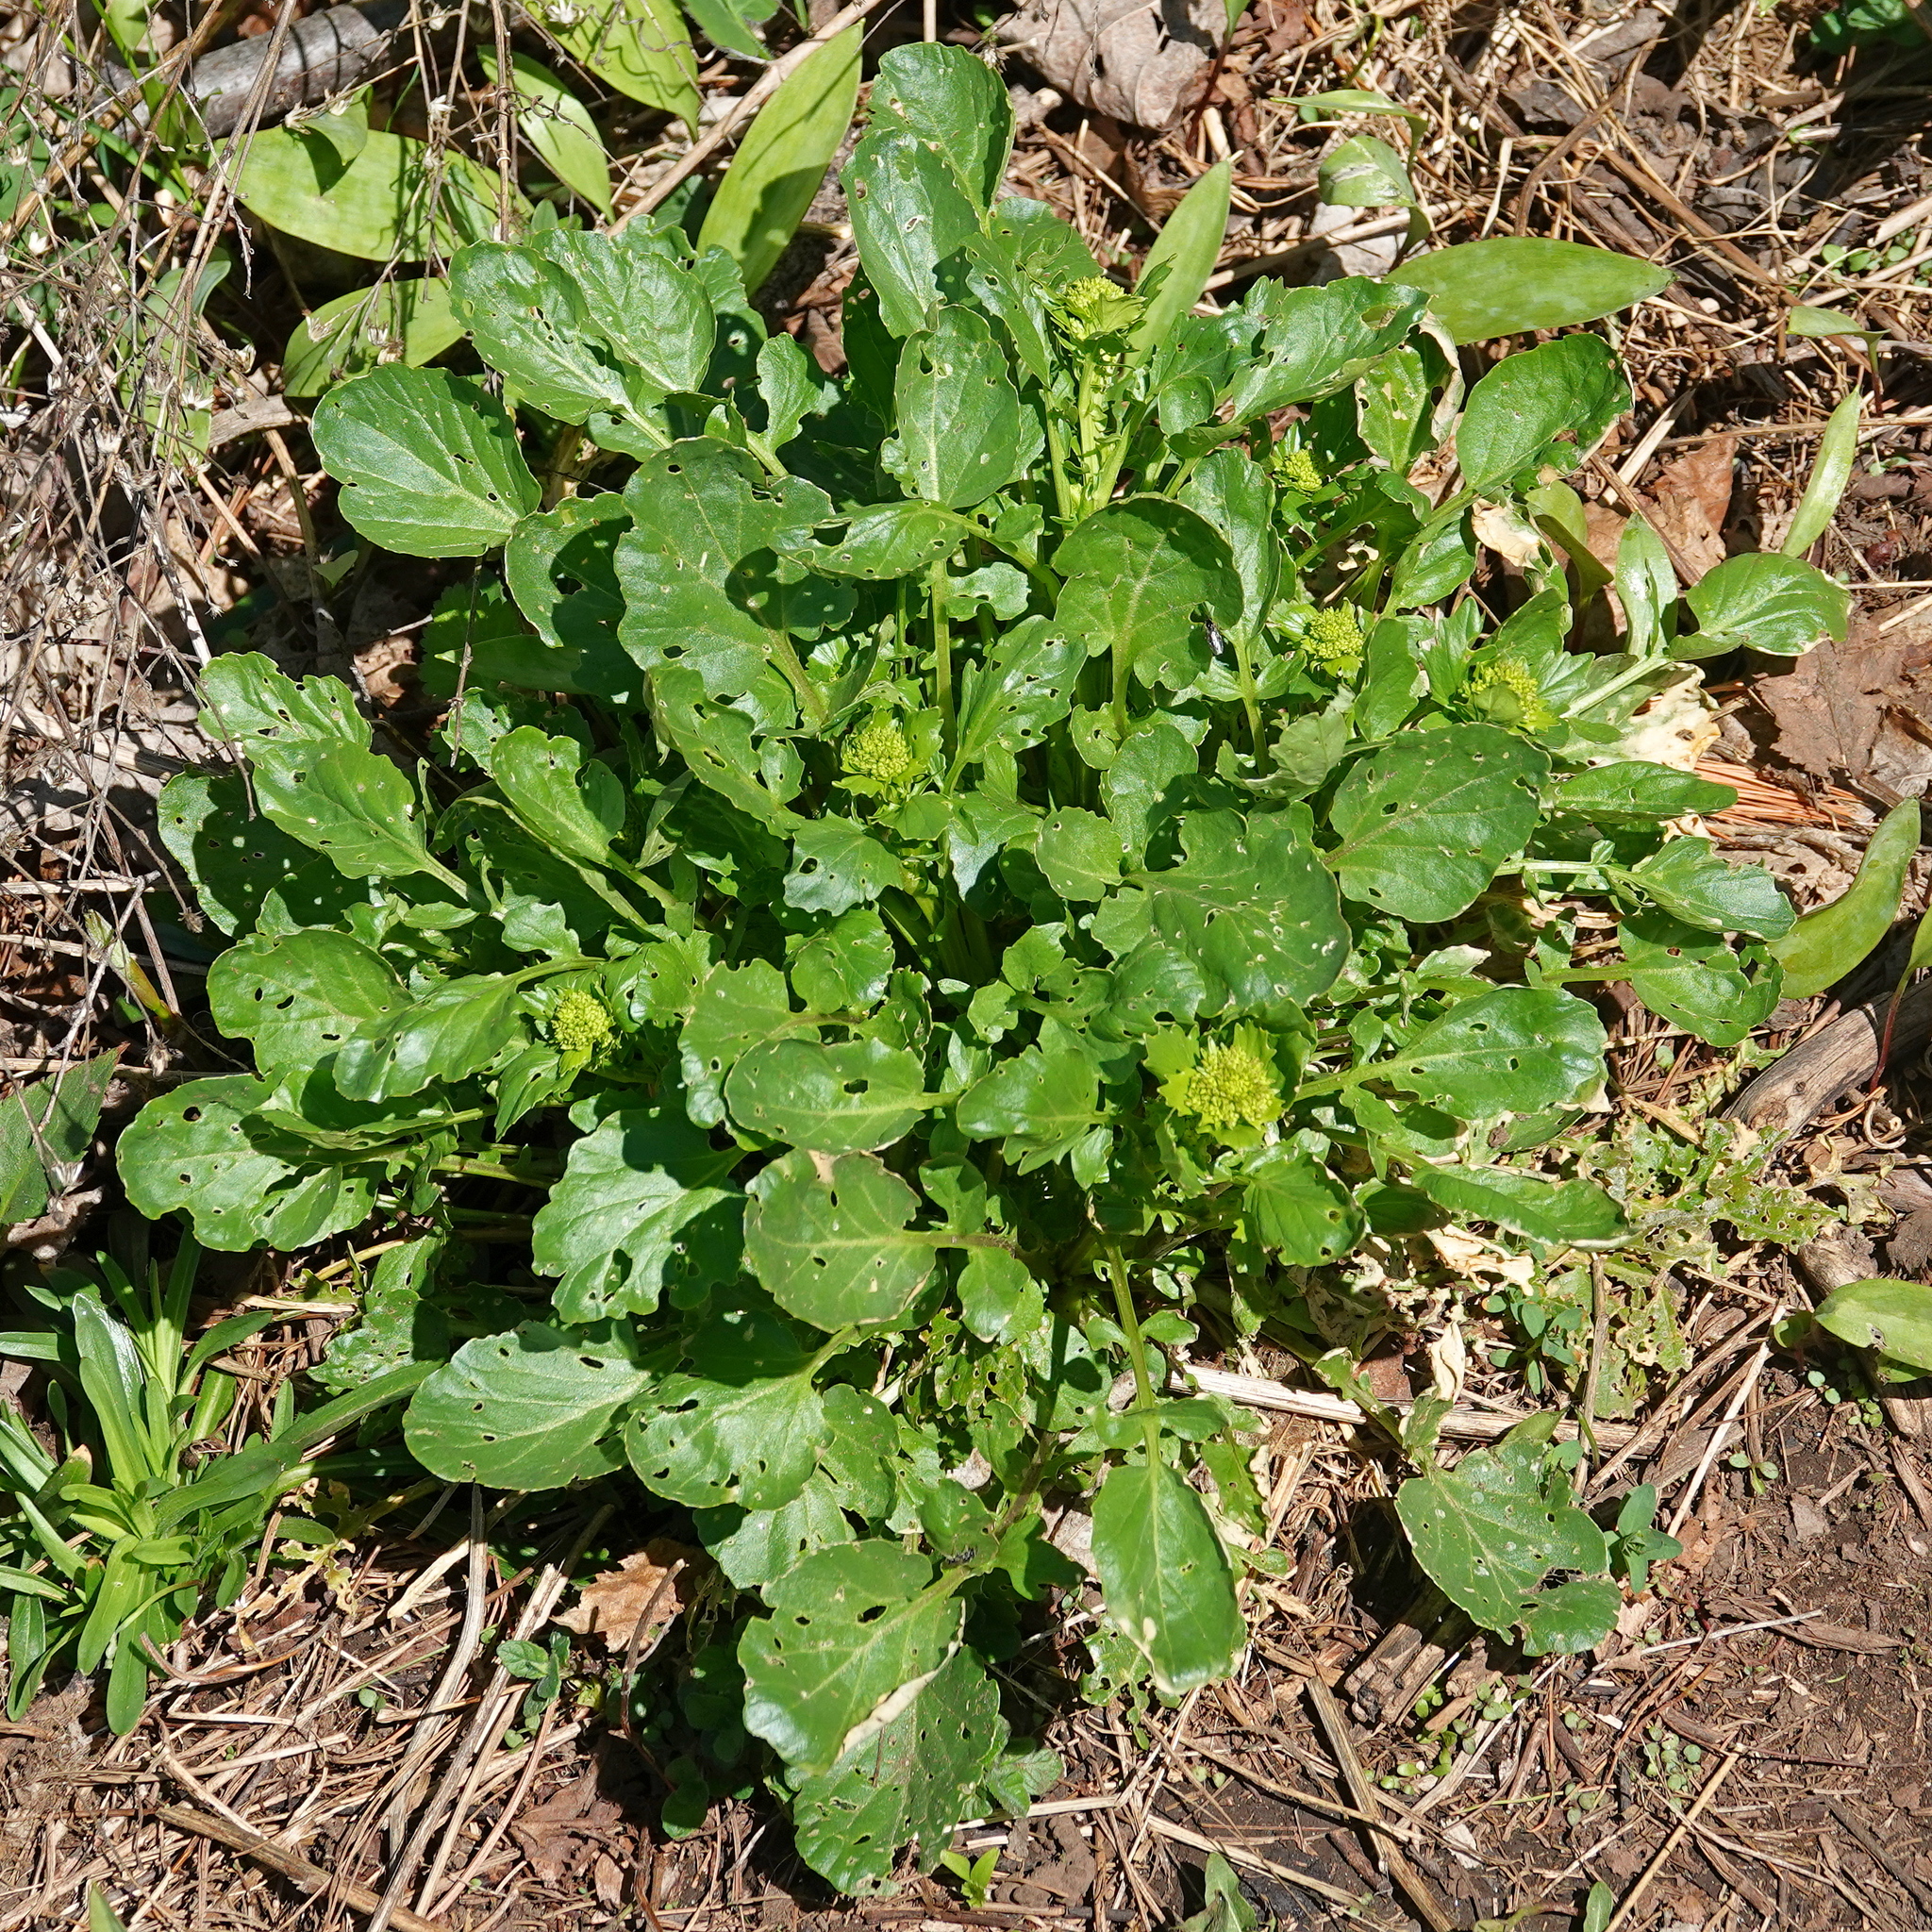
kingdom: Plantae
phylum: Tracheophyta
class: Magnoliopsida
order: Brassicales
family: Brassicaceae
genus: Barbarea
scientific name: Barbarea vulgaris
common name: Cressy-greens
